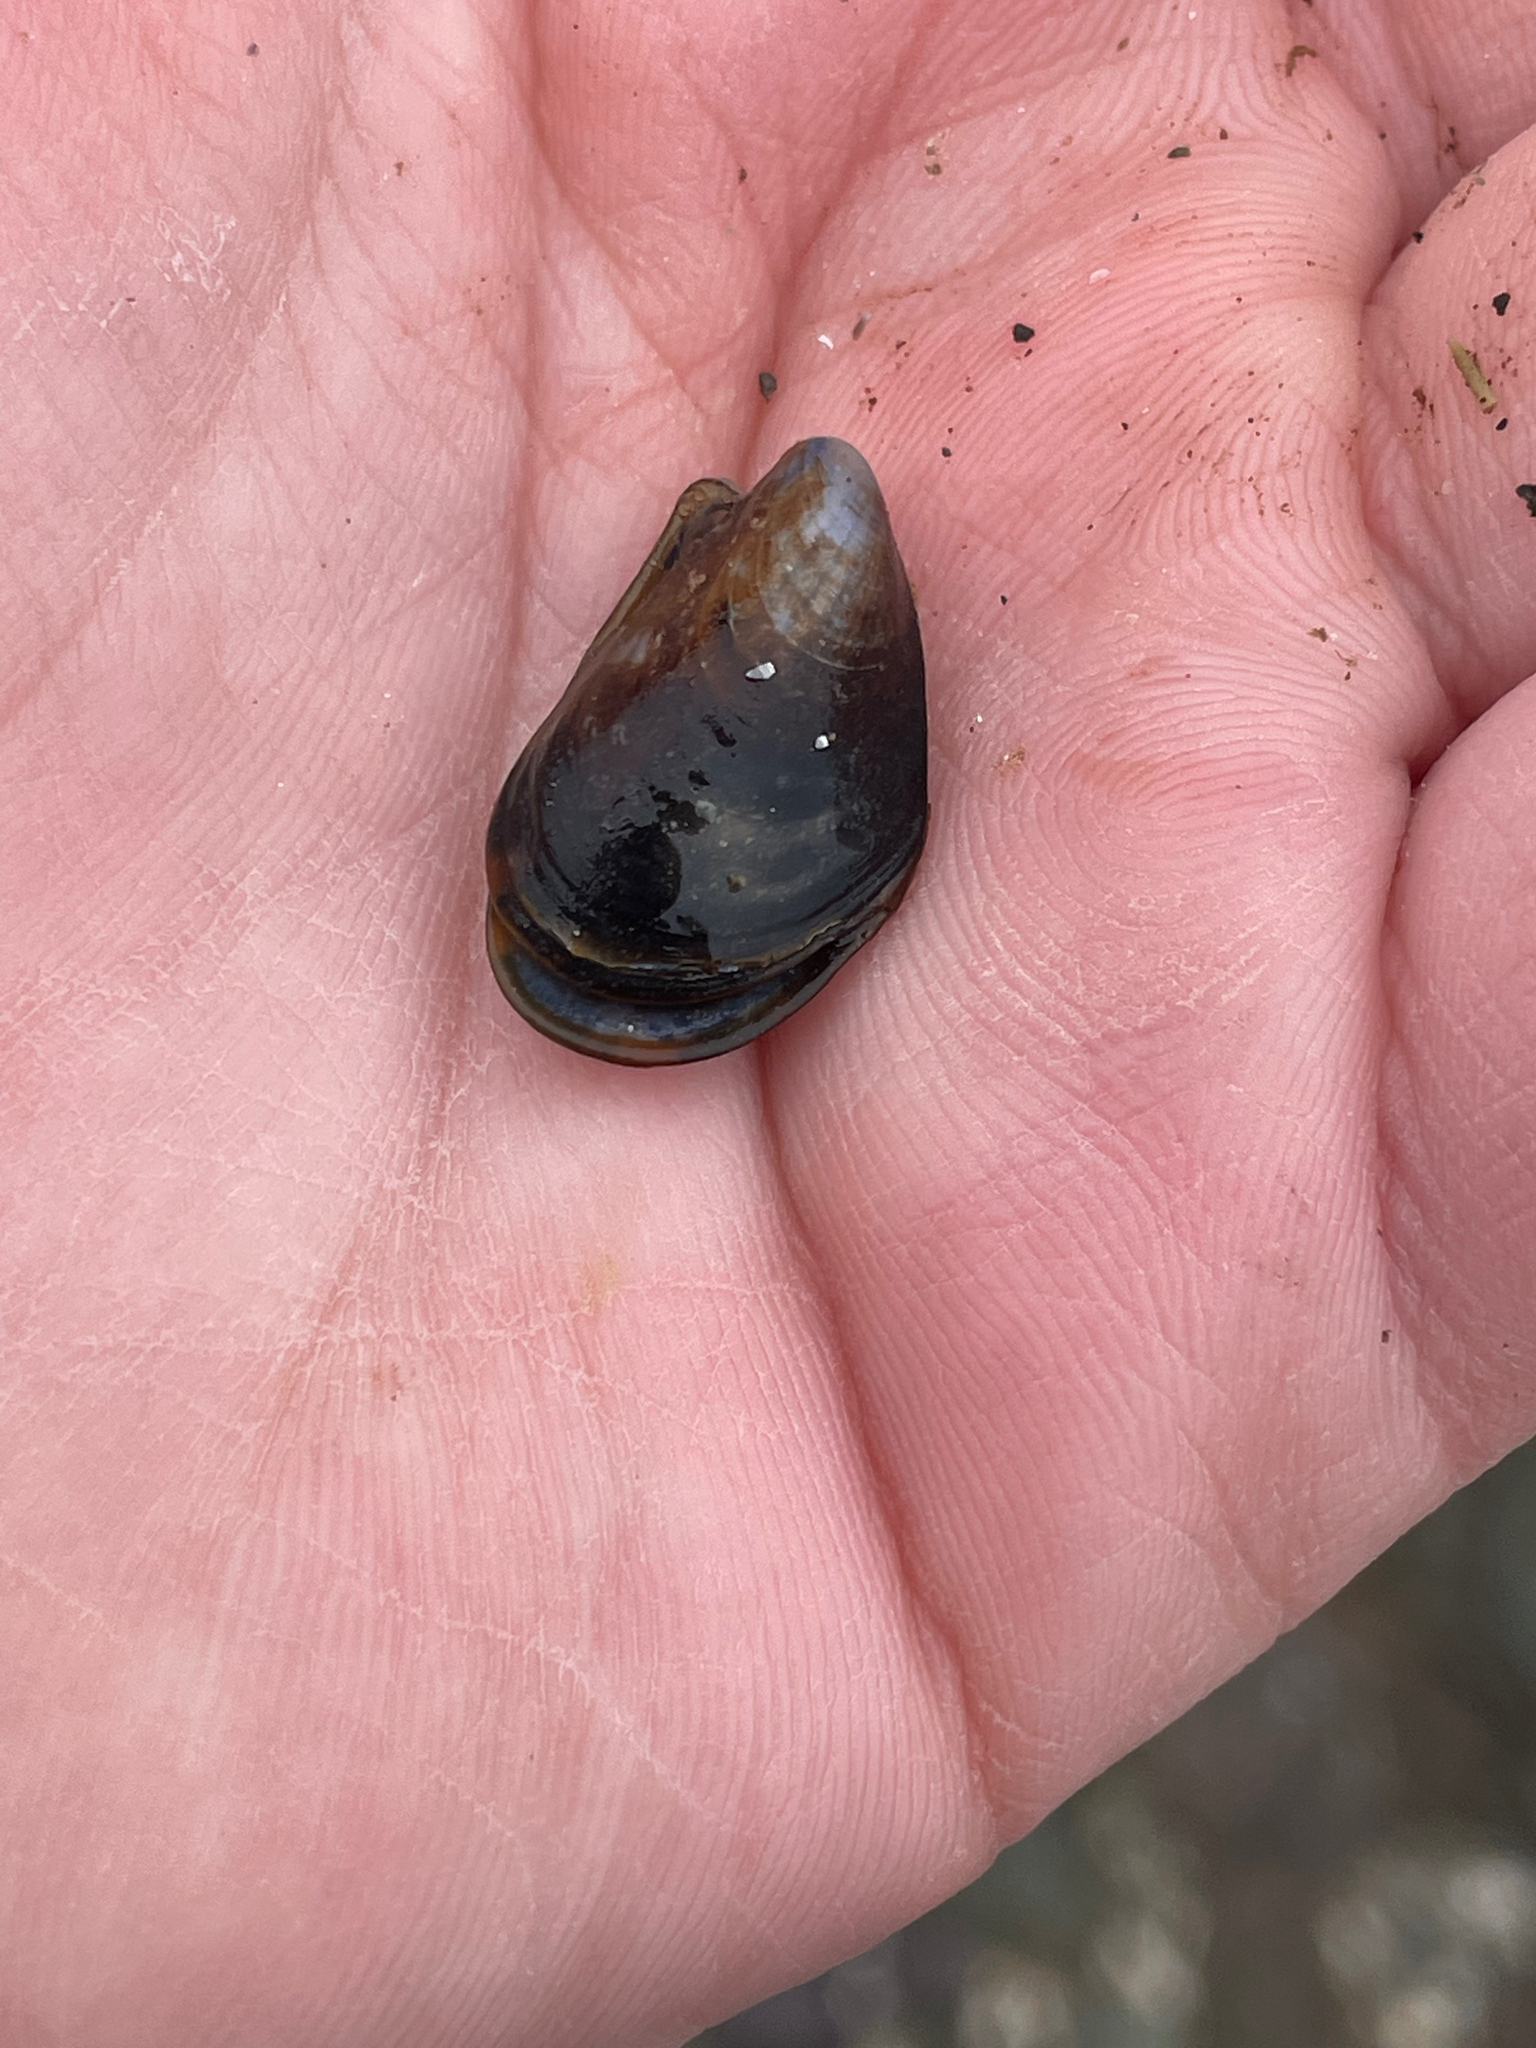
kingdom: Animalia
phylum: Mollusca
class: Bivalvia
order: Mytilida
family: Mytilidae
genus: Mytilus
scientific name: Mytilus
